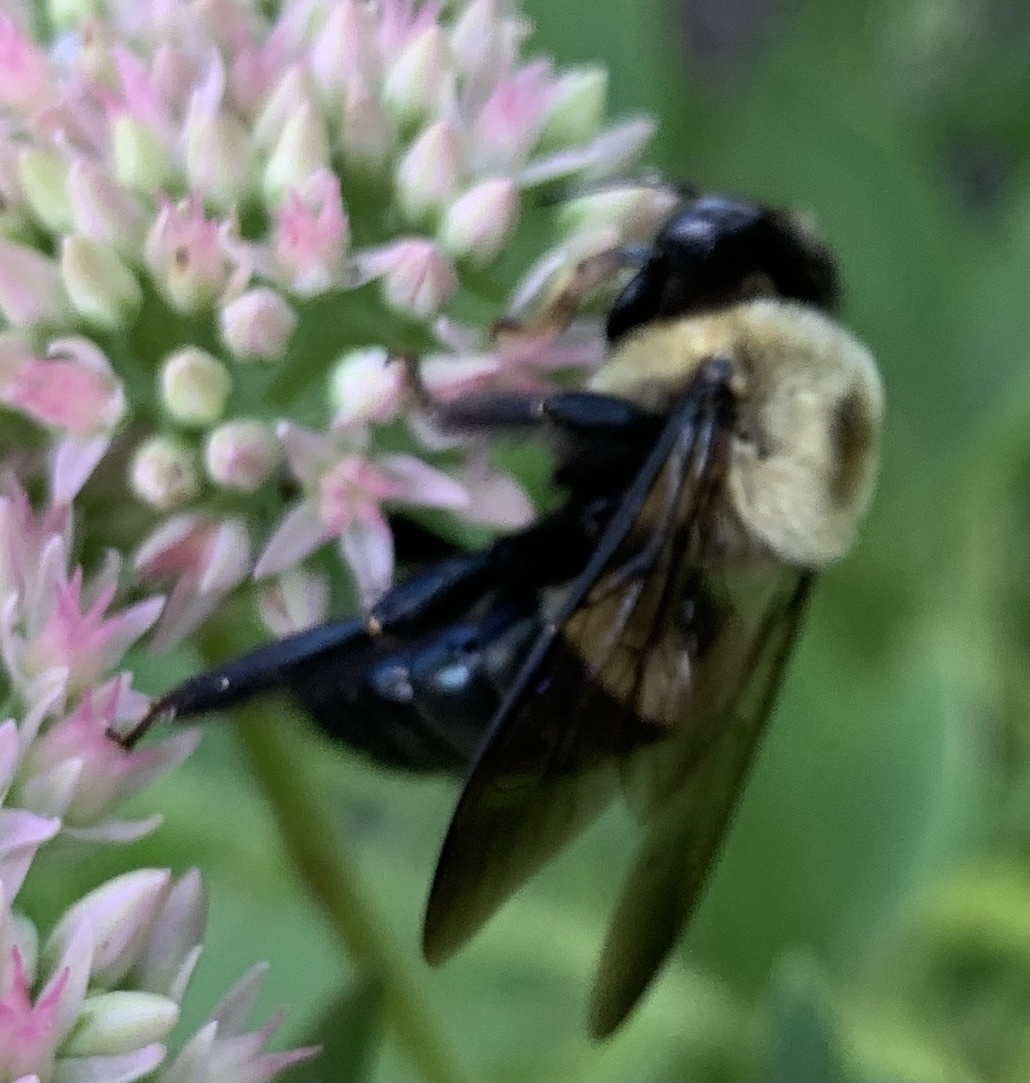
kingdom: Animalia
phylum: Arthropoda
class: Insecta
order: Hymenoptera
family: Apidae
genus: Xylocopa
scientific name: Xylocopa virginica
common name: Carpenter bee
